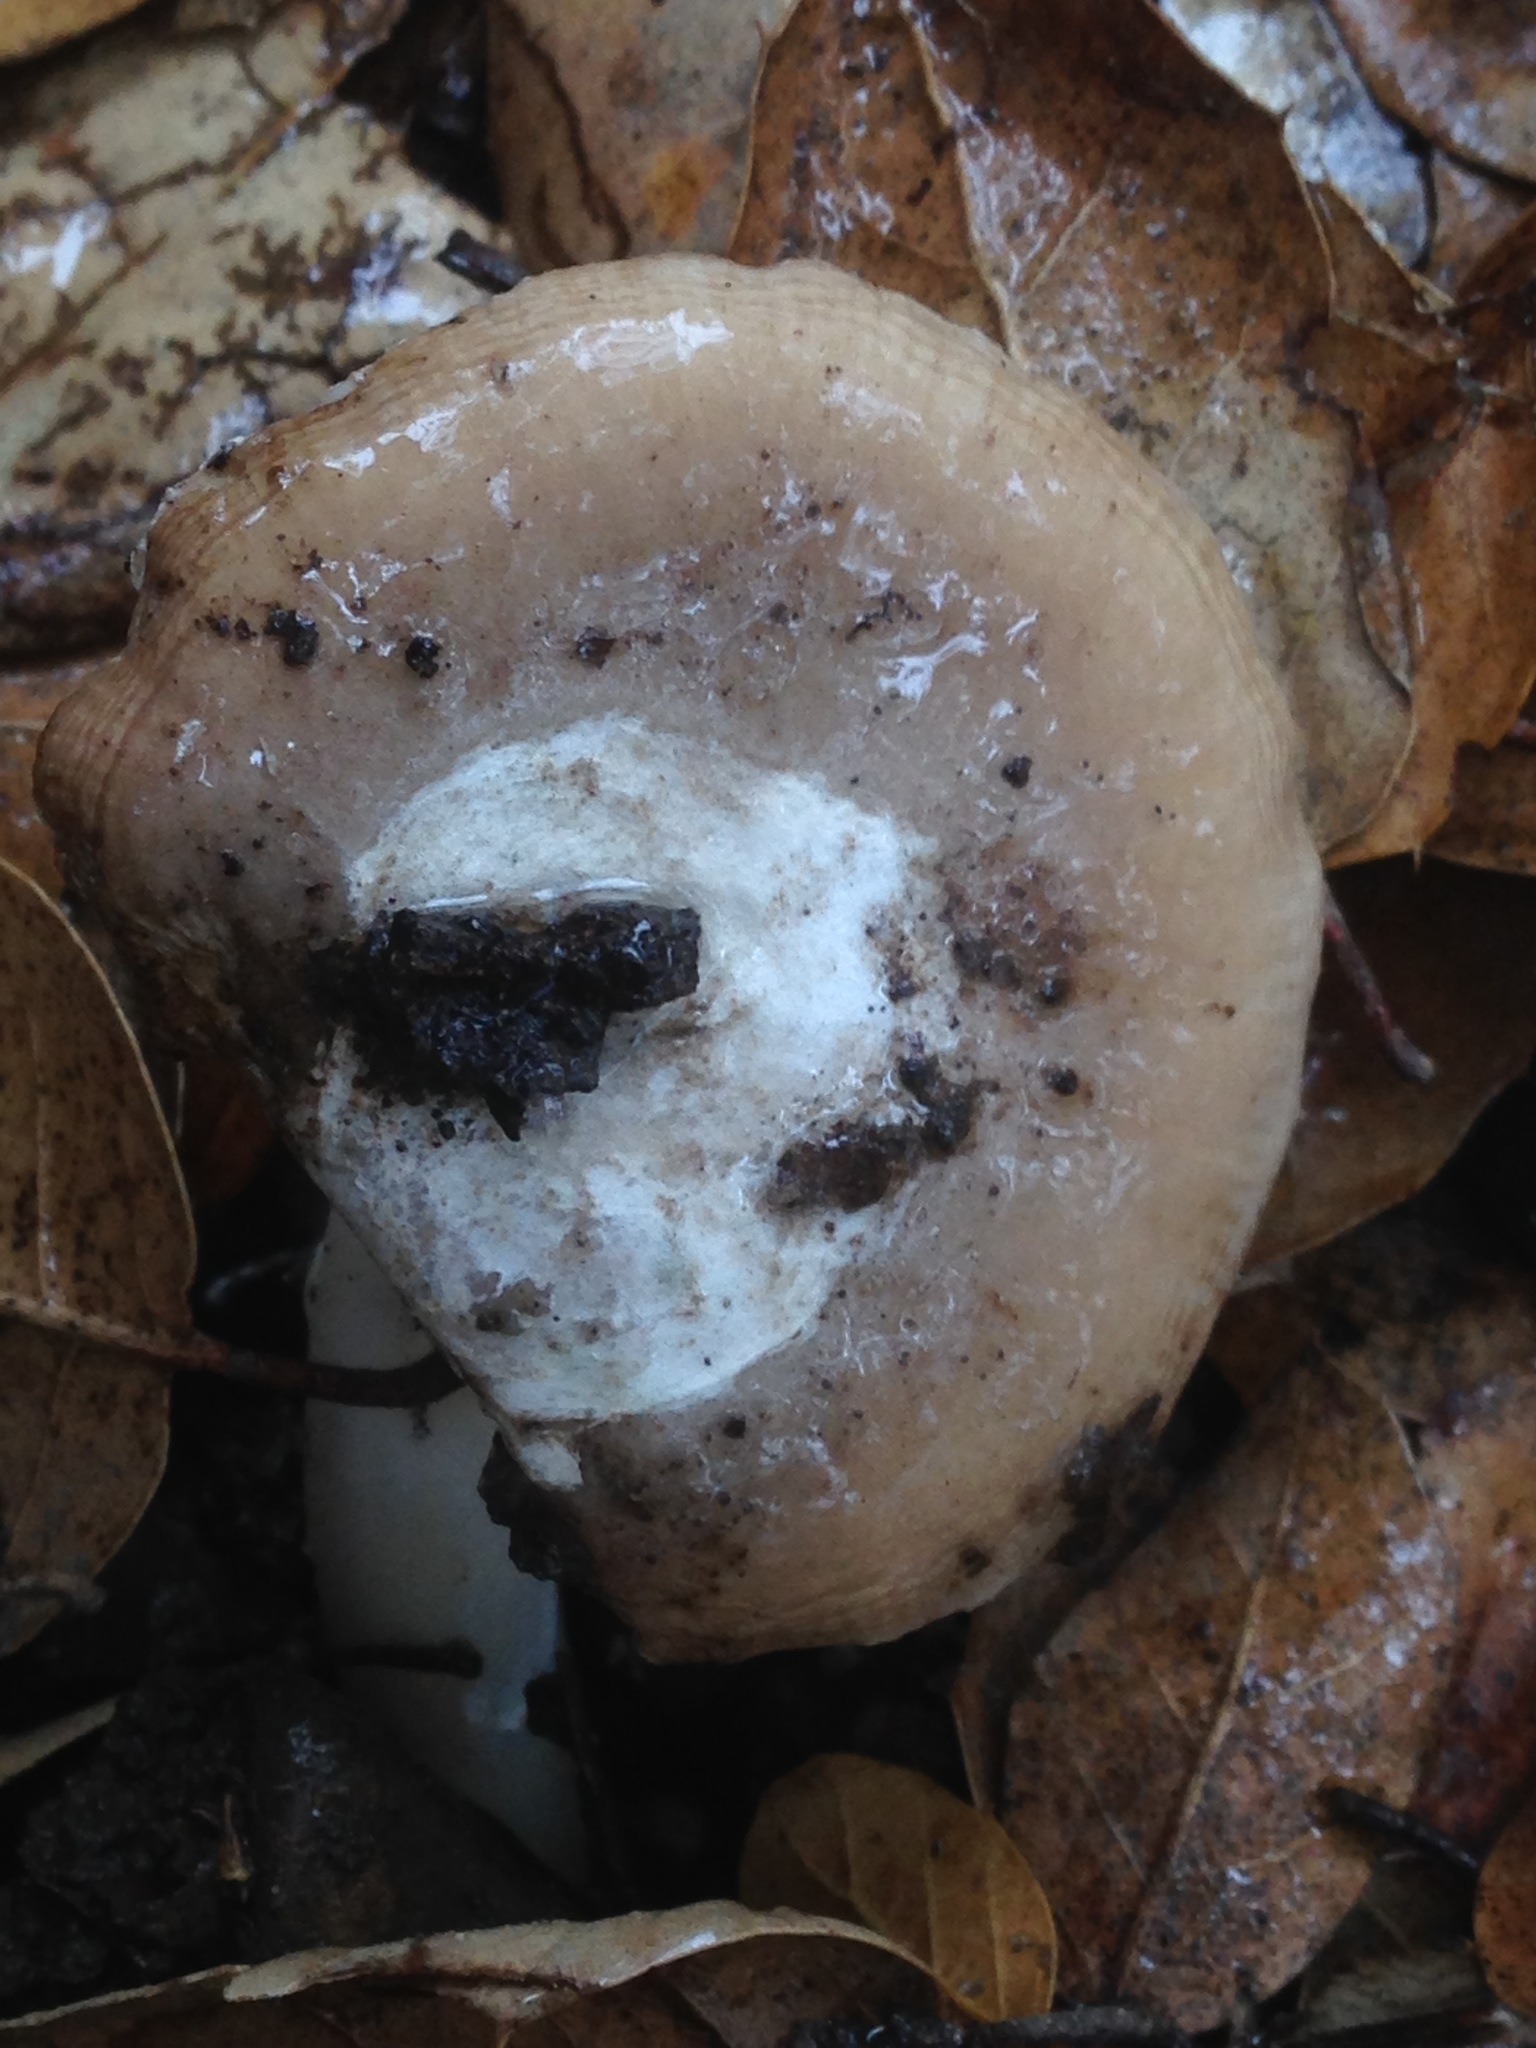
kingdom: Fungi
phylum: Basidiomycota
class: Agaricomycetes
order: Agaricales
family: Amanitaceae
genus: Amanita
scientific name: Amanita calyptratoides
